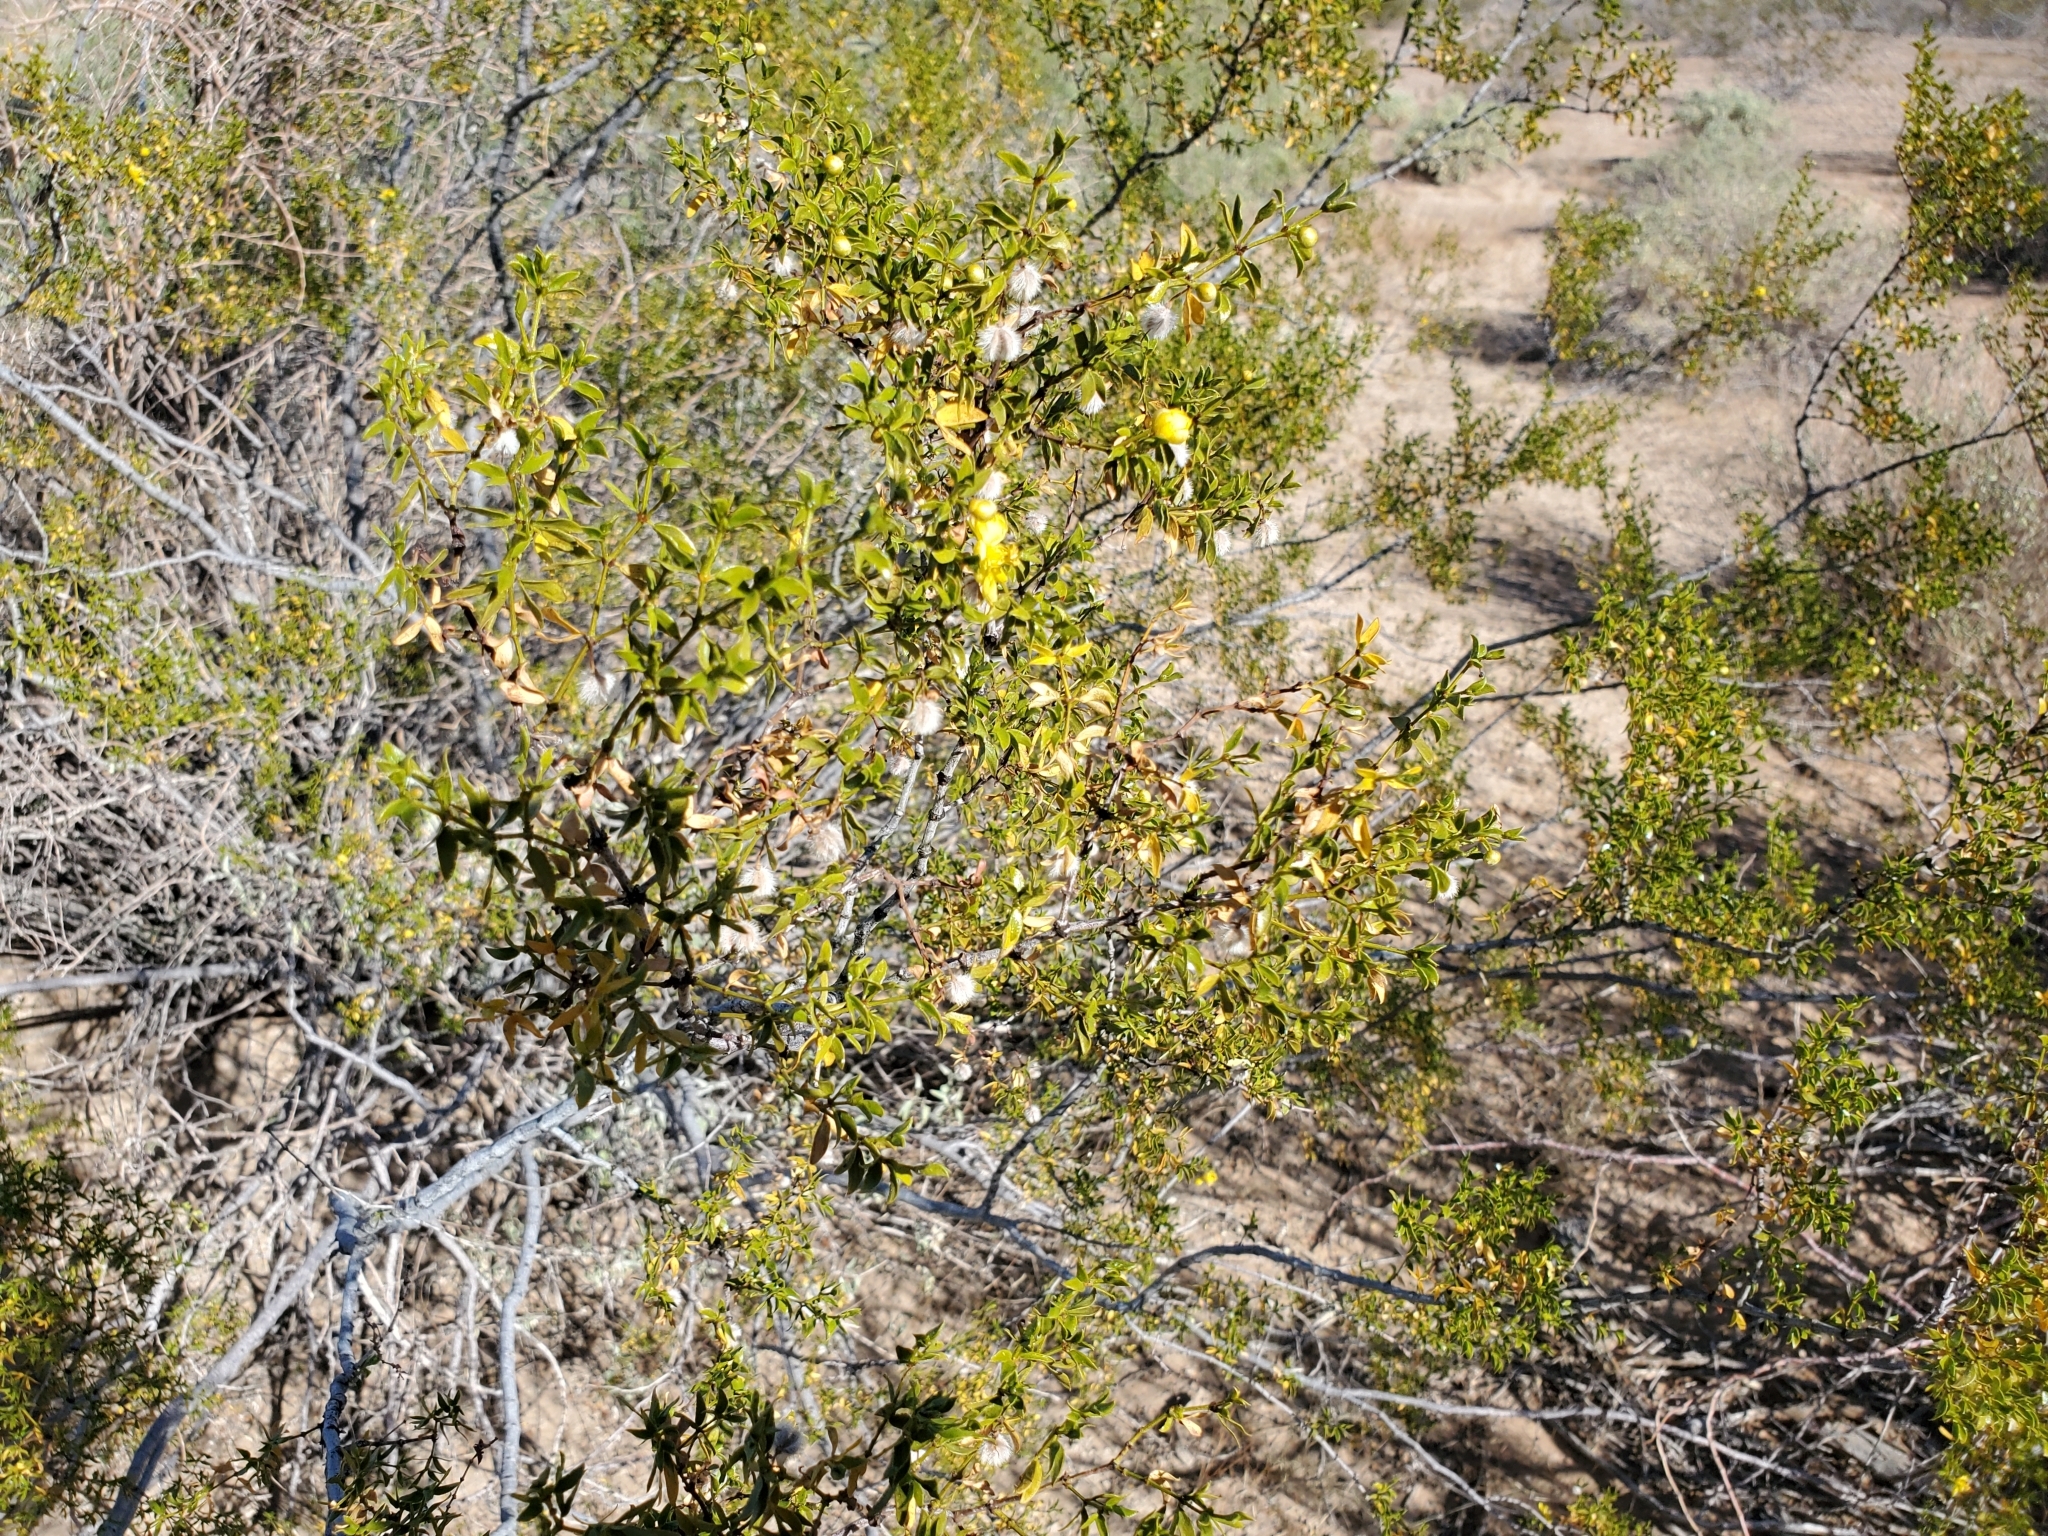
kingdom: Plantae
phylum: Tracheophyta
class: Magnoliopsida
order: Zygophyllales
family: Zygophyllaceae
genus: Larrea
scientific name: Larrea tridentata
